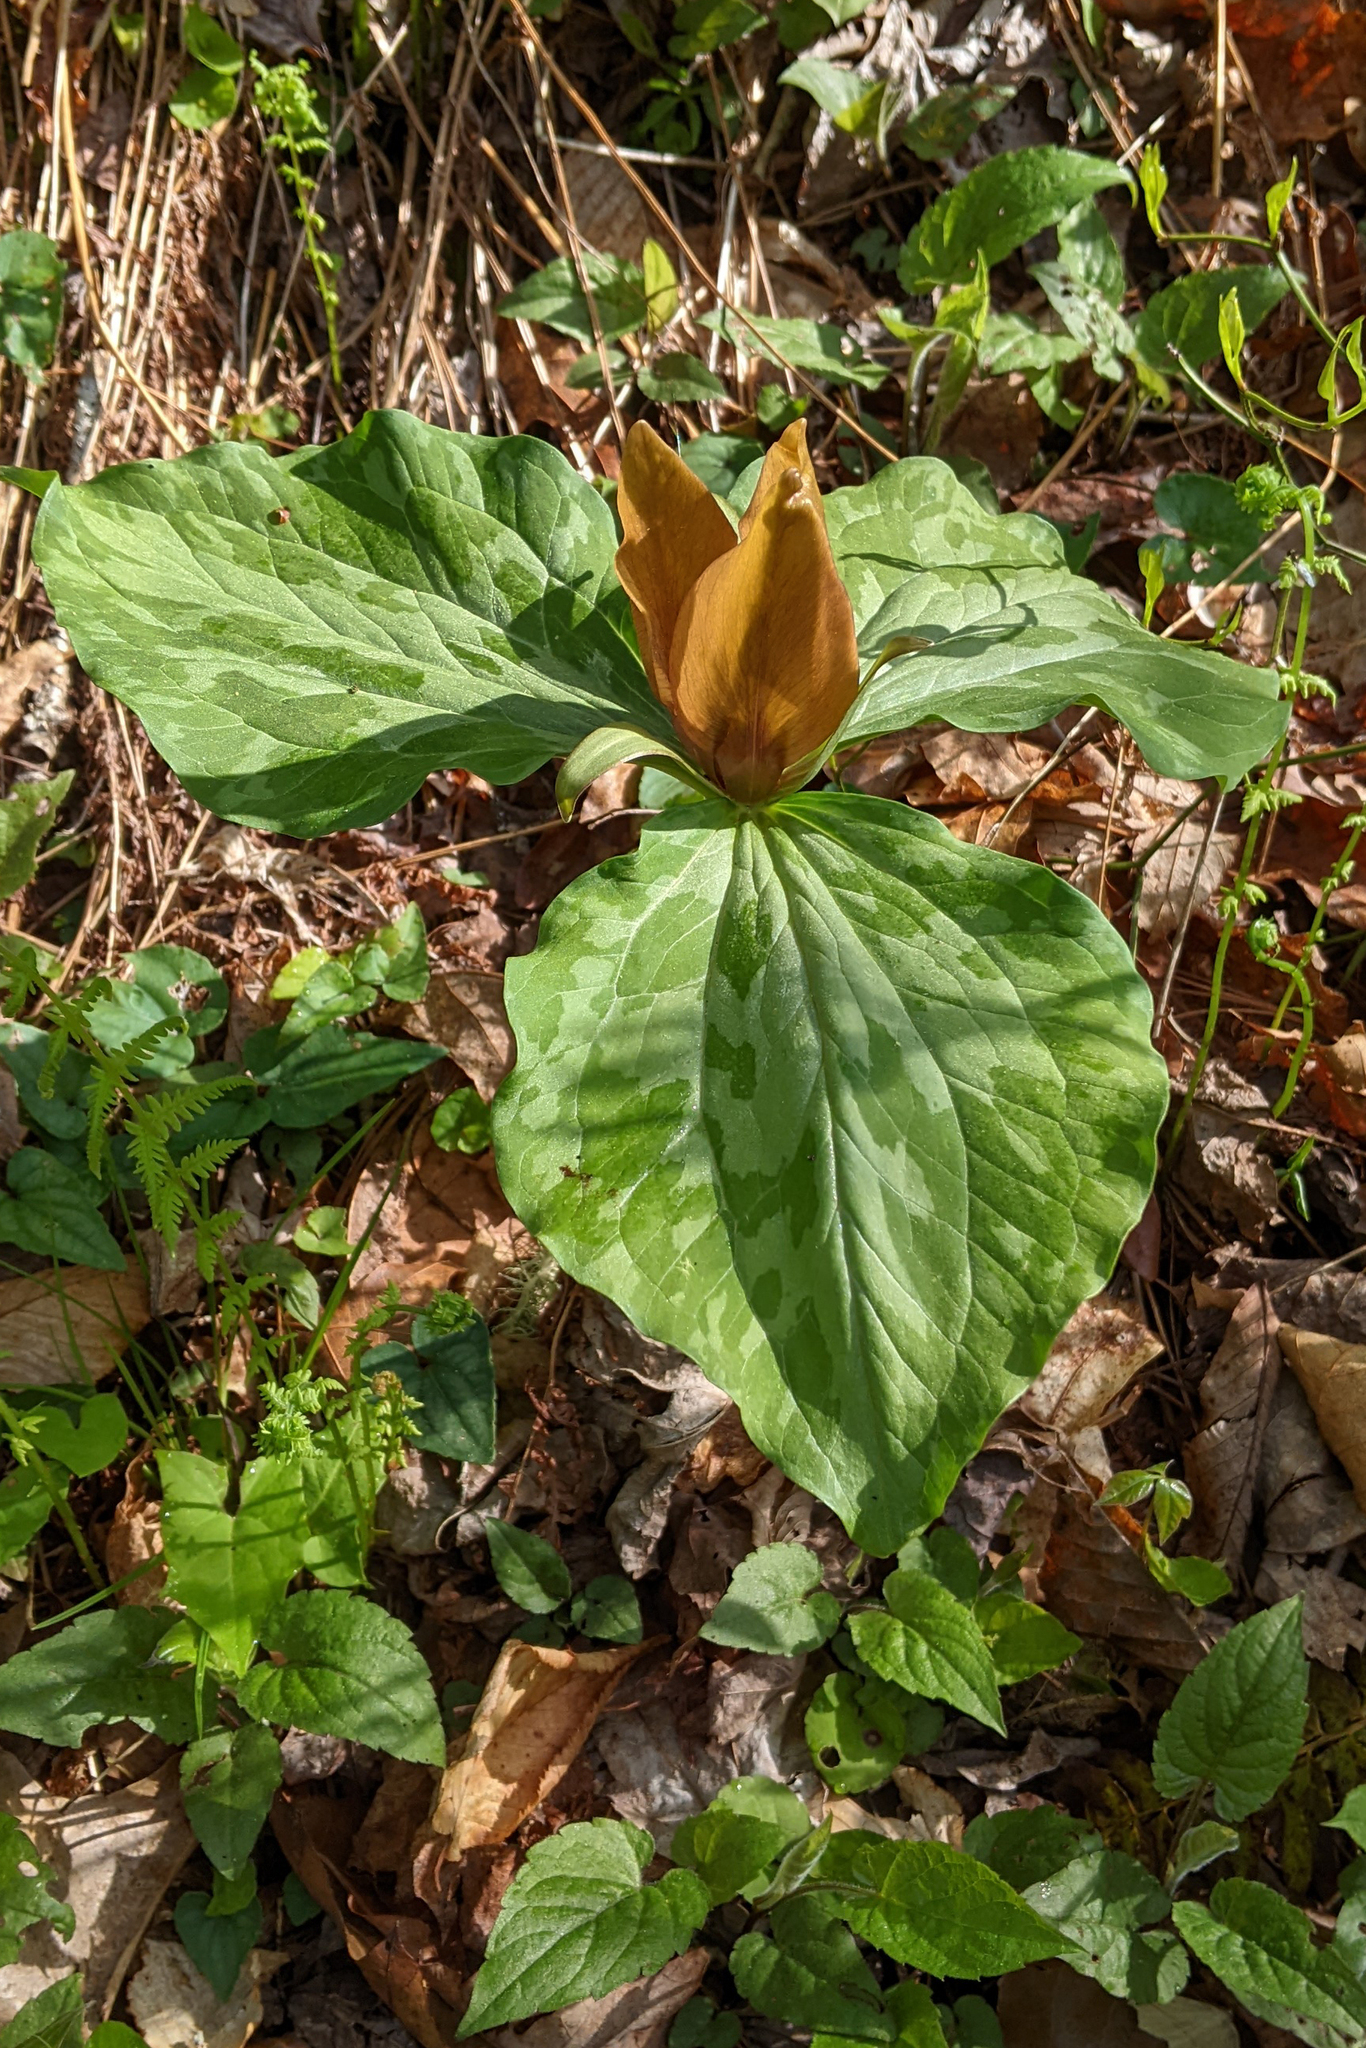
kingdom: Plantae
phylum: Tracheophyta
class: Liliopsida
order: Liliales
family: Melanthiaceae
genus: Trillium
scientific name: Trillium cuneatum
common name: Cuneate trillium
